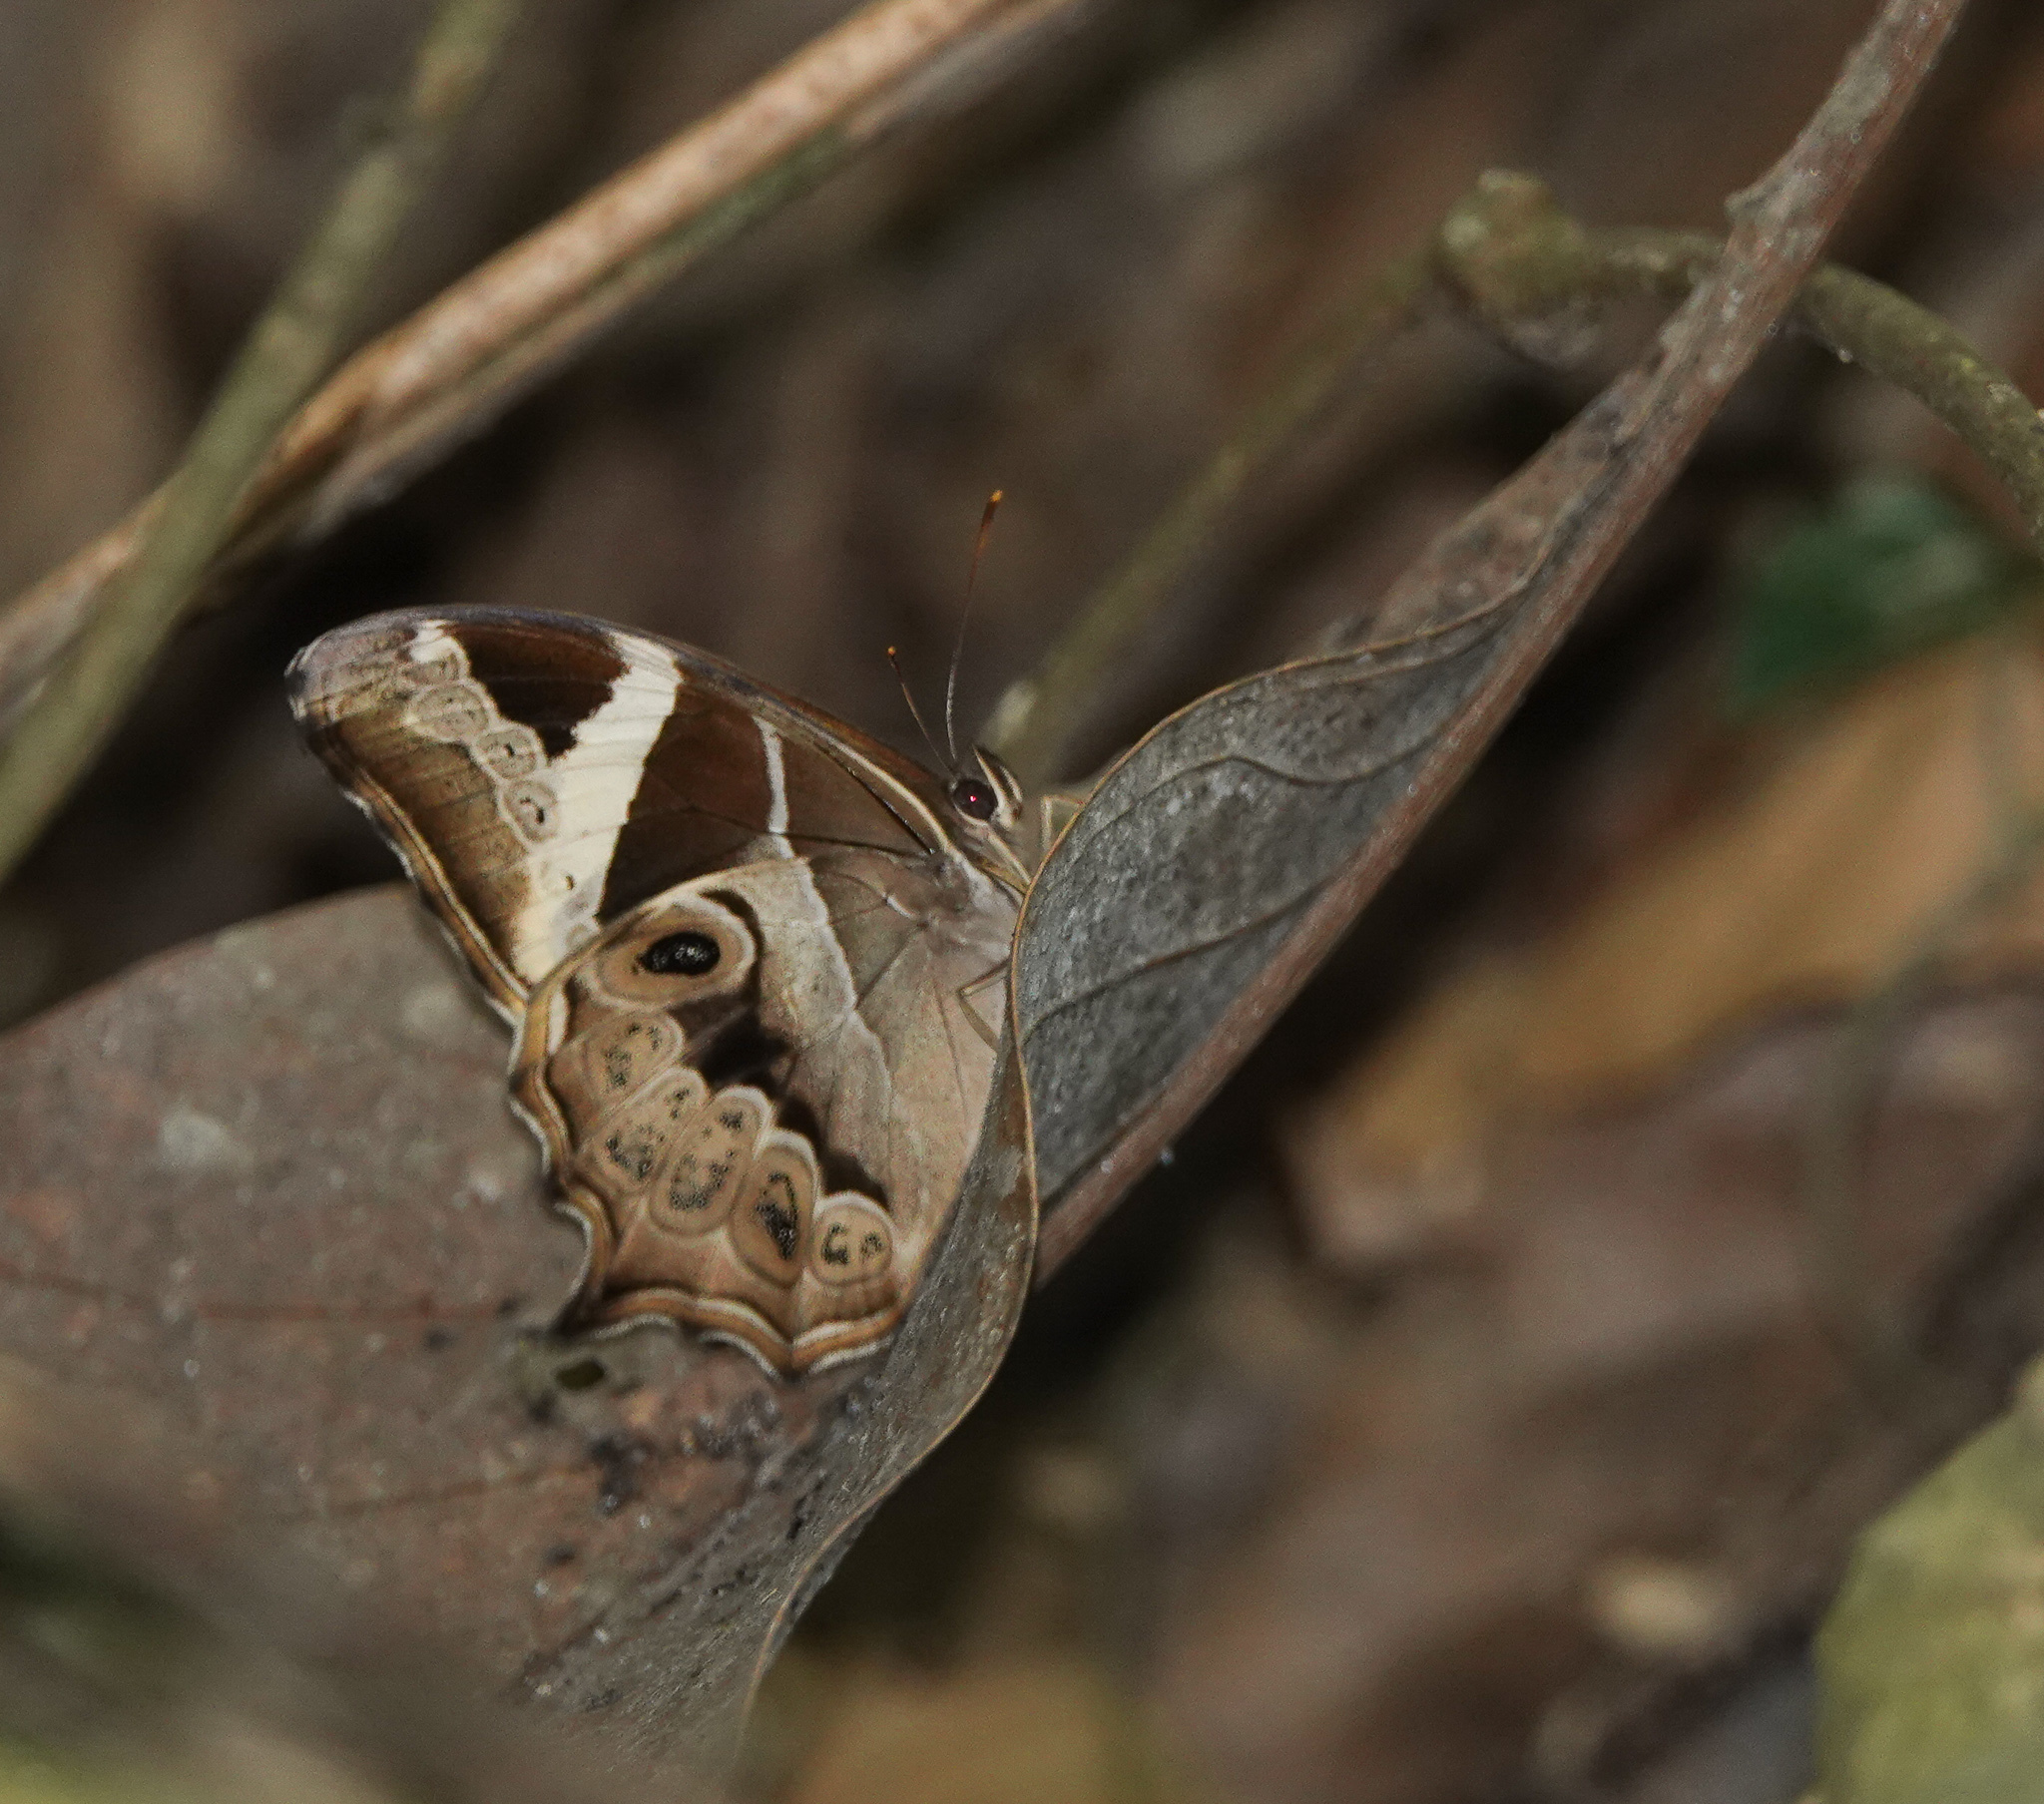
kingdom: Animalia
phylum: Arthropoda
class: Insecta
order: Lepidoptera
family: Nymphalidae
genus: Lethe
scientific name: Lethe europa
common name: Bamboo treebrown
